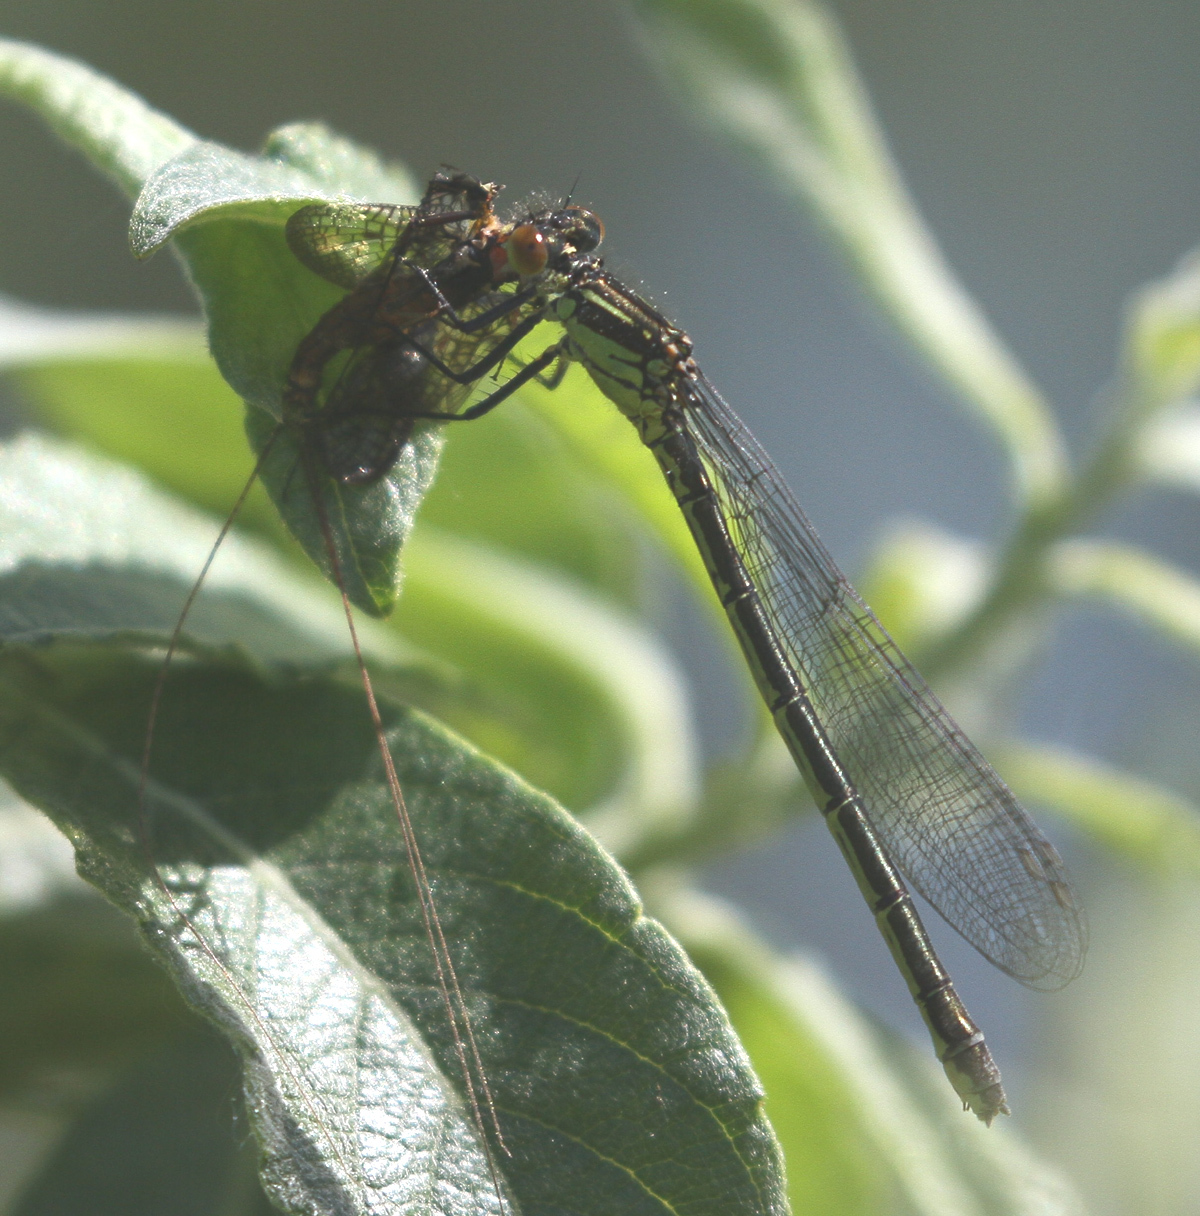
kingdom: Animalia
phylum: Arthropoda
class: Insecta
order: Odonata
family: Coenagrionidae
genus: Erythromma
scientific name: Erythromma najas
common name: Red-eyed damselfly
